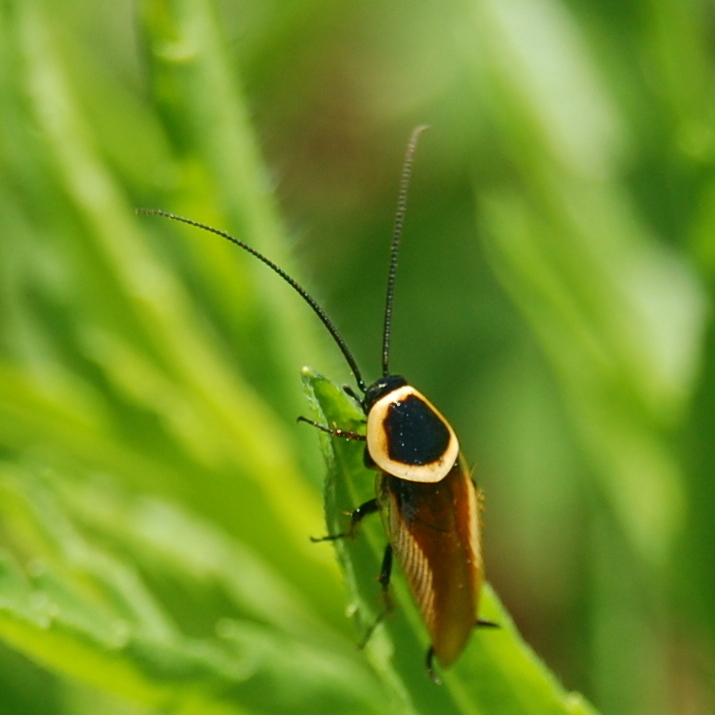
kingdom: Animalia
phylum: Arthropoda
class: Insecta
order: Blattodea
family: Ectobiidae
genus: Pseudomops
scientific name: Pseudomops neglectus
